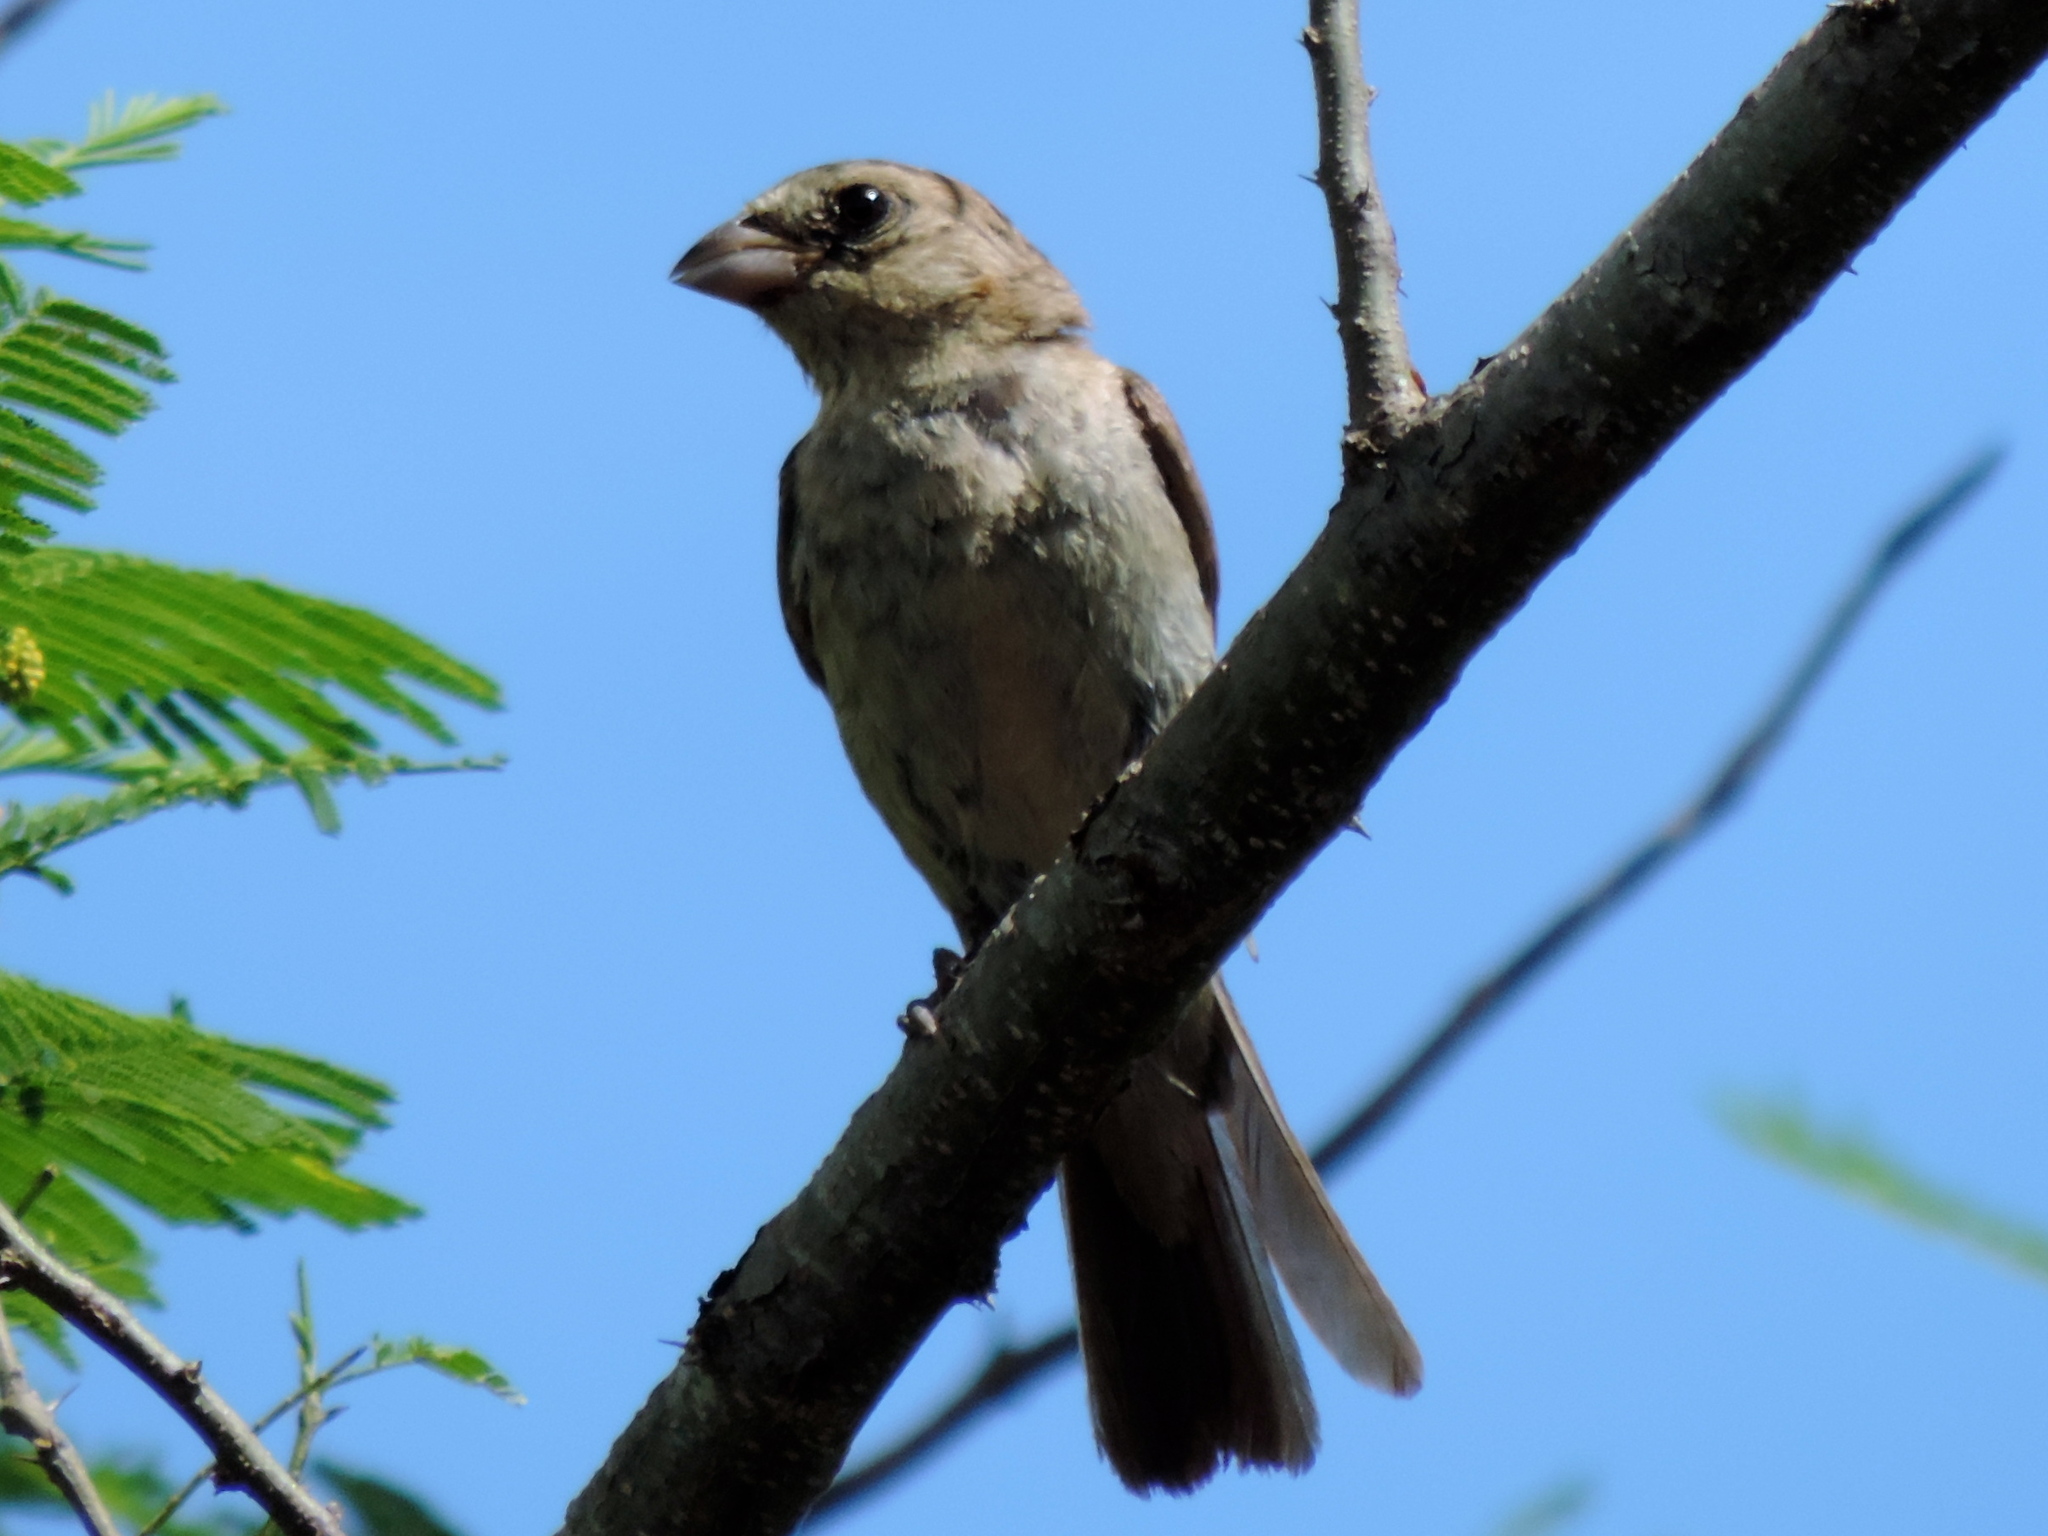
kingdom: Animalia
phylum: Chordata
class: Aves
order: Passeriformes
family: Cardinalidae
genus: Passerina
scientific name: Passerina
